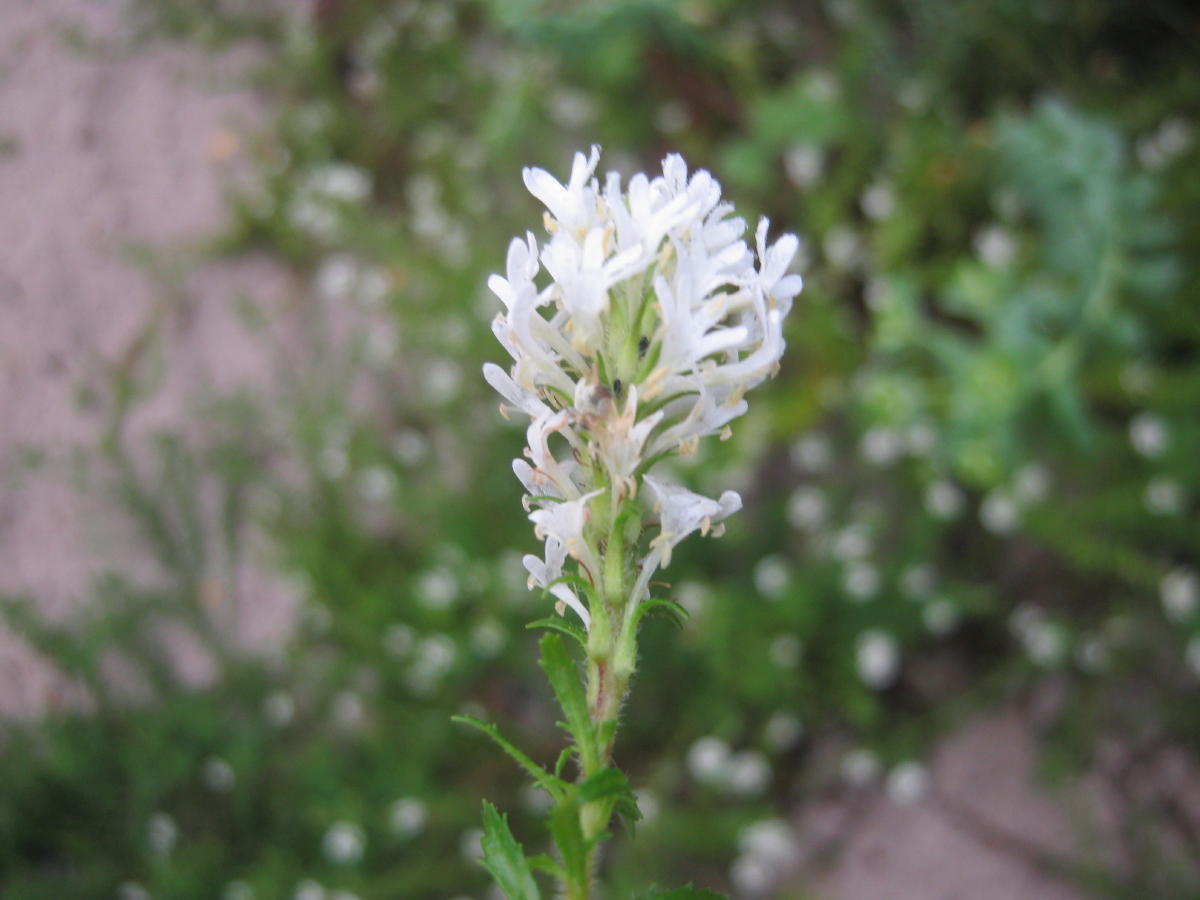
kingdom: Plantae
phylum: Tracheophyta
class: Magnoliopsida
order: Lamiales
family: Scrophulariaceae
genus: Dischisma
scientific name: Dischisma ciliatum
